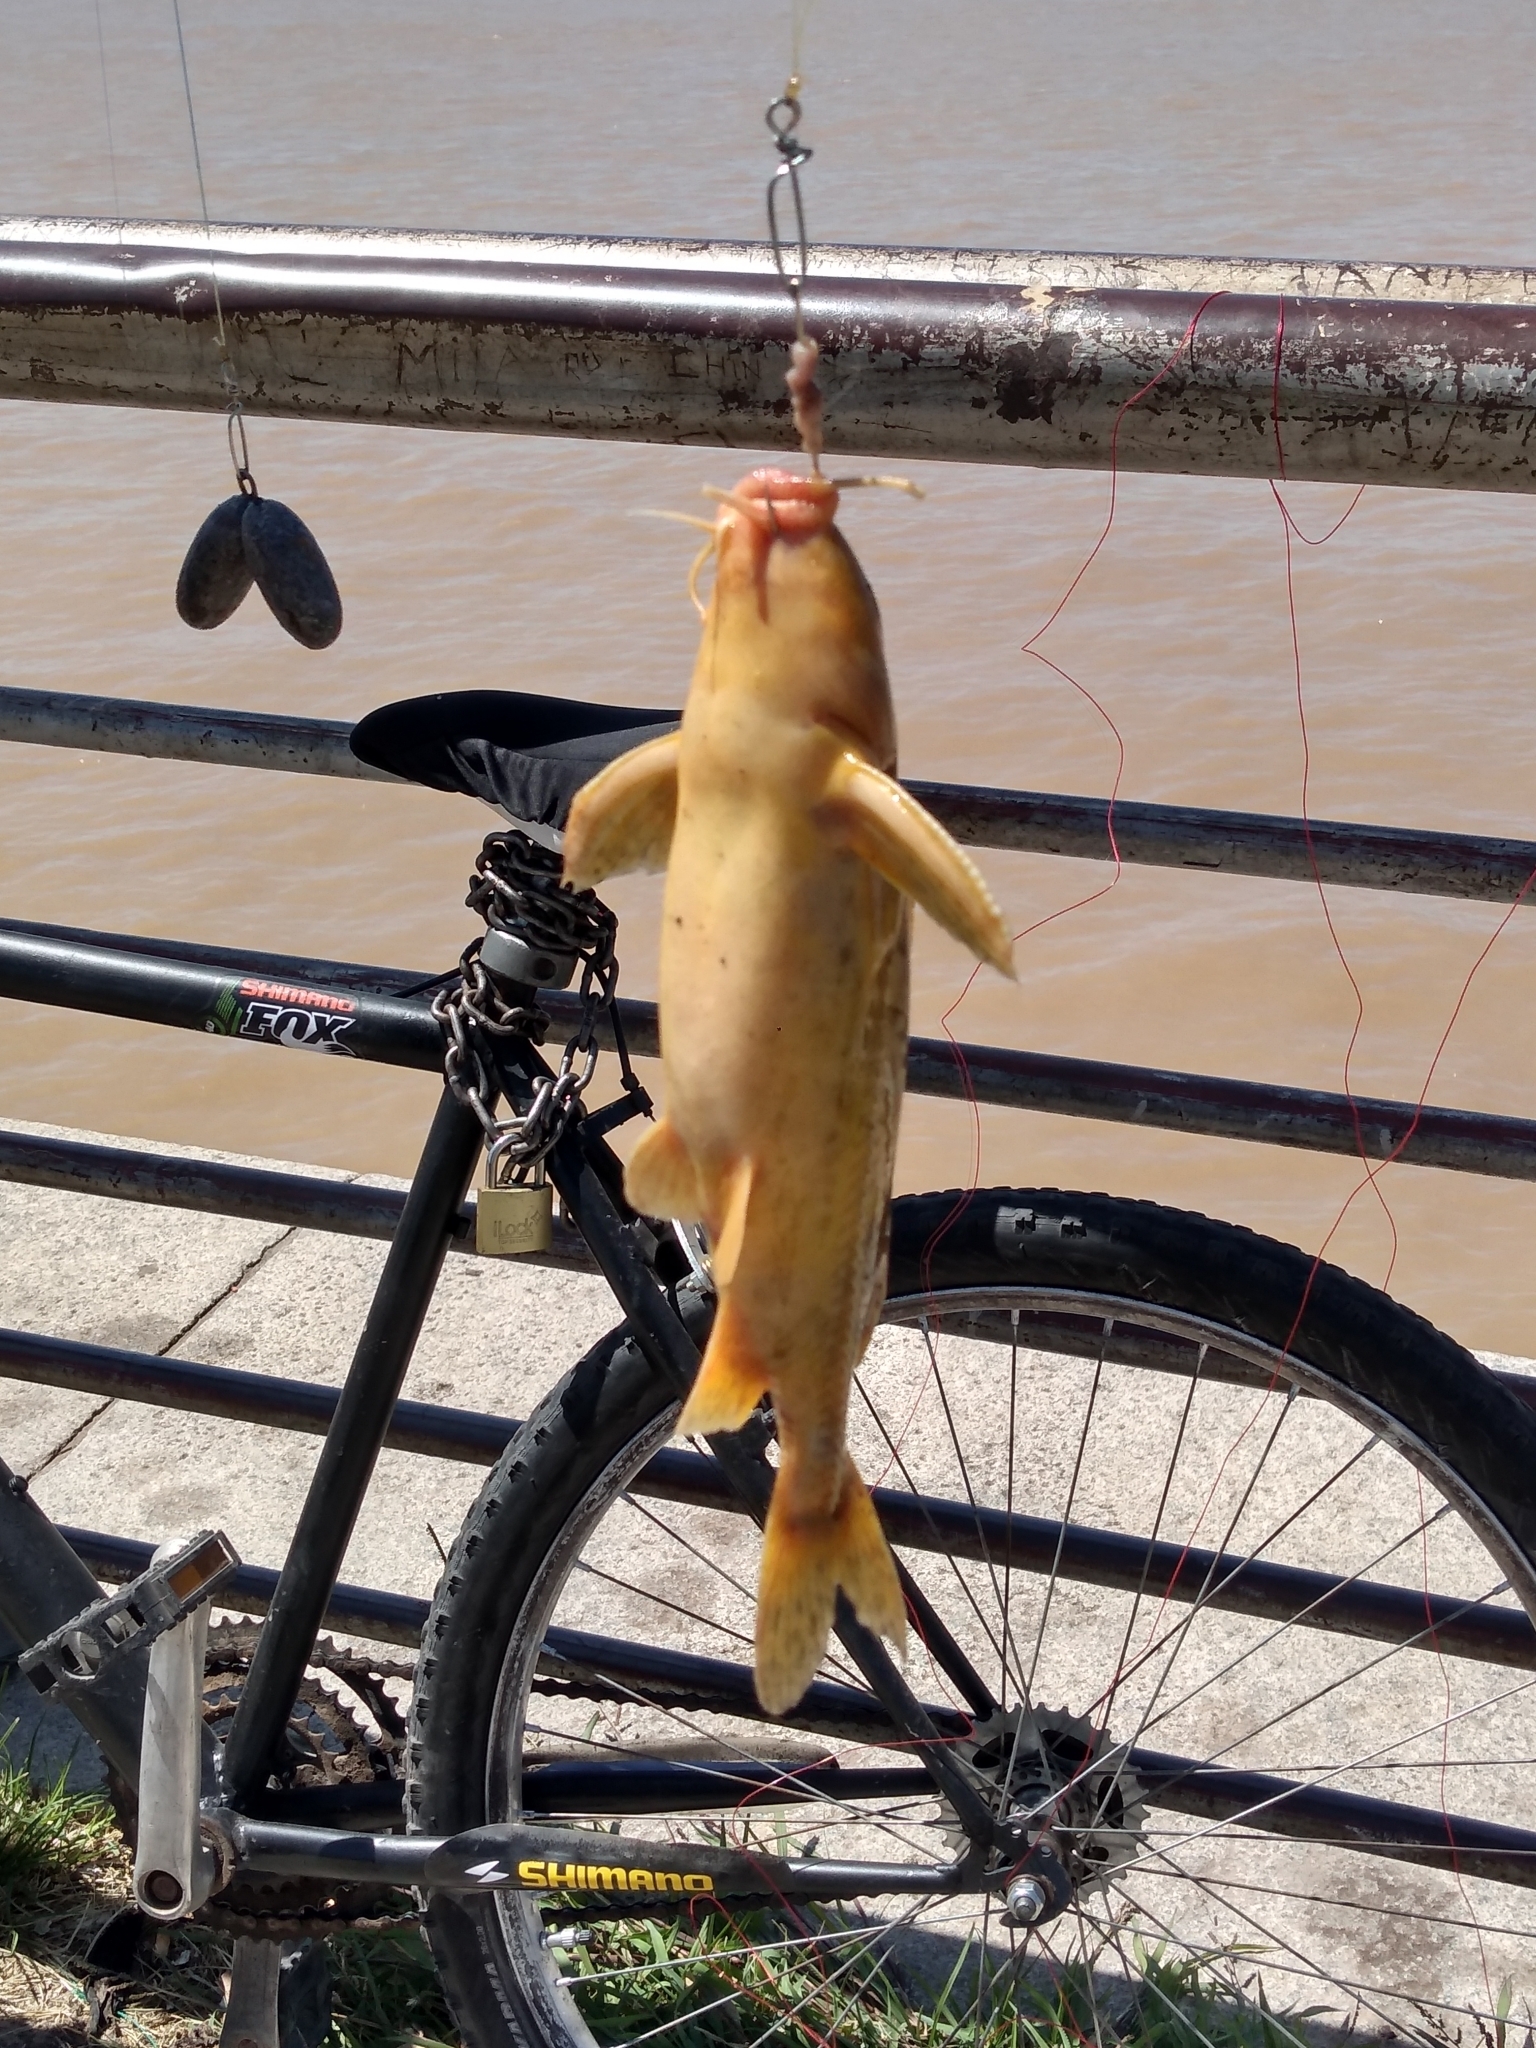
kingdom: Animalia
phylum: Chordata
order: Siluriformes
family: Doradidae
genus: Rhinodoras
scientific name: Rhinodoras dorbignyi
